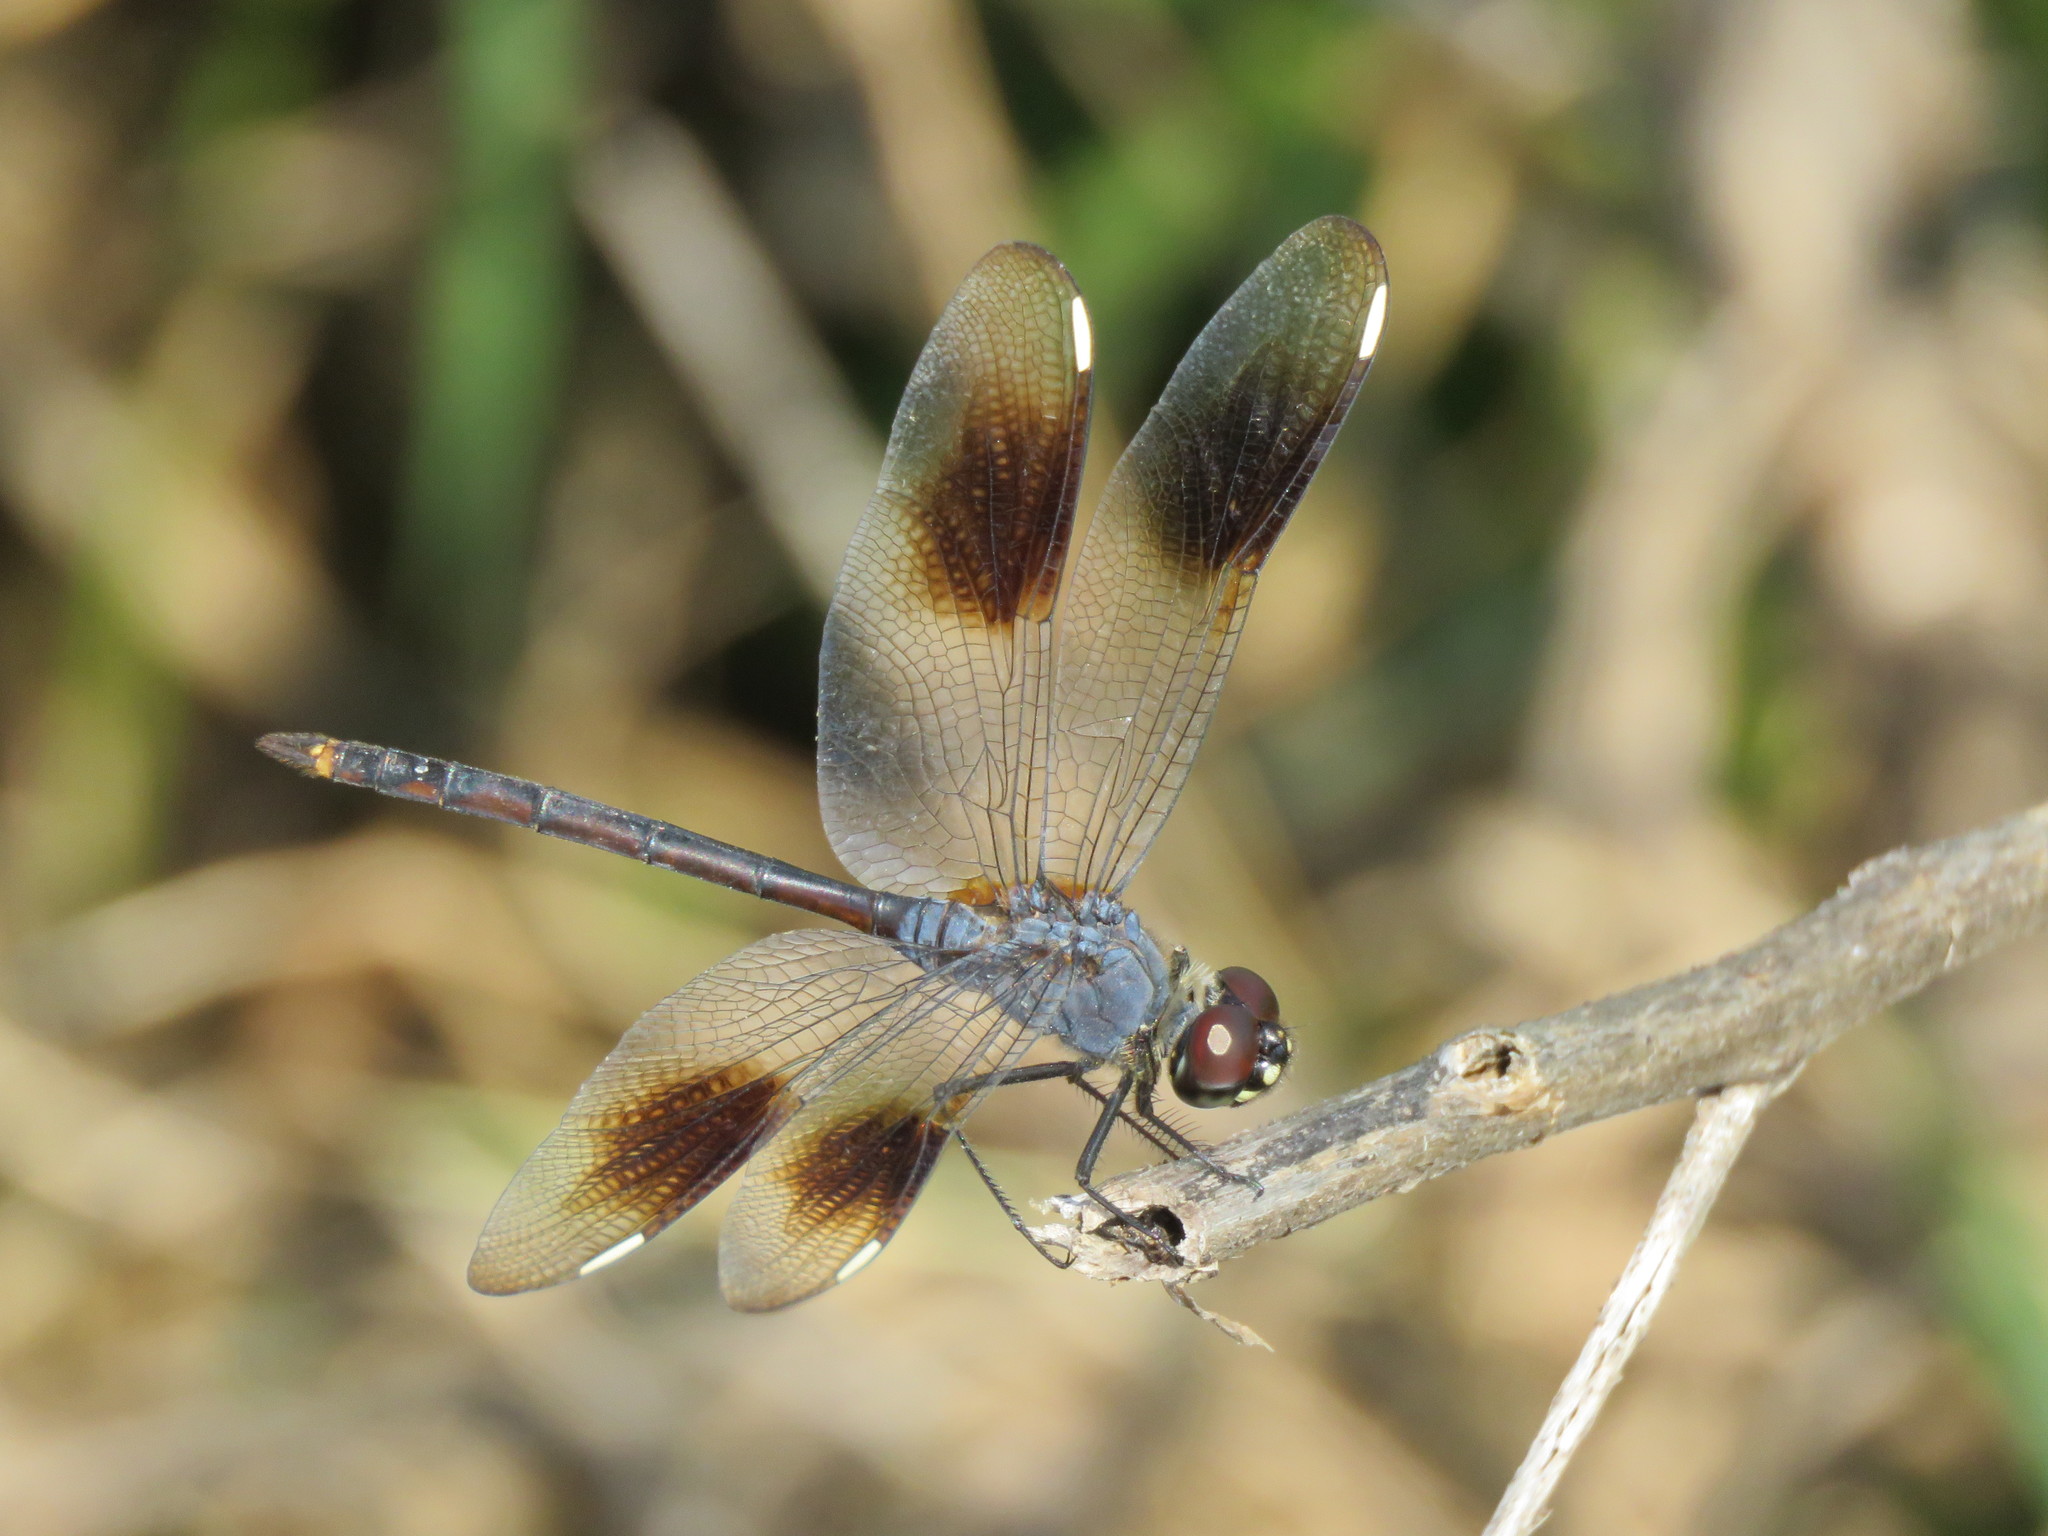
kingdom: Animalia
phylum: Arthropoda
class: Insecta
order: Odonata
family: Libellulidae
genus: Brachymesia
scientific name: Brachymesia gravida
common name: Four-spotted pennant
